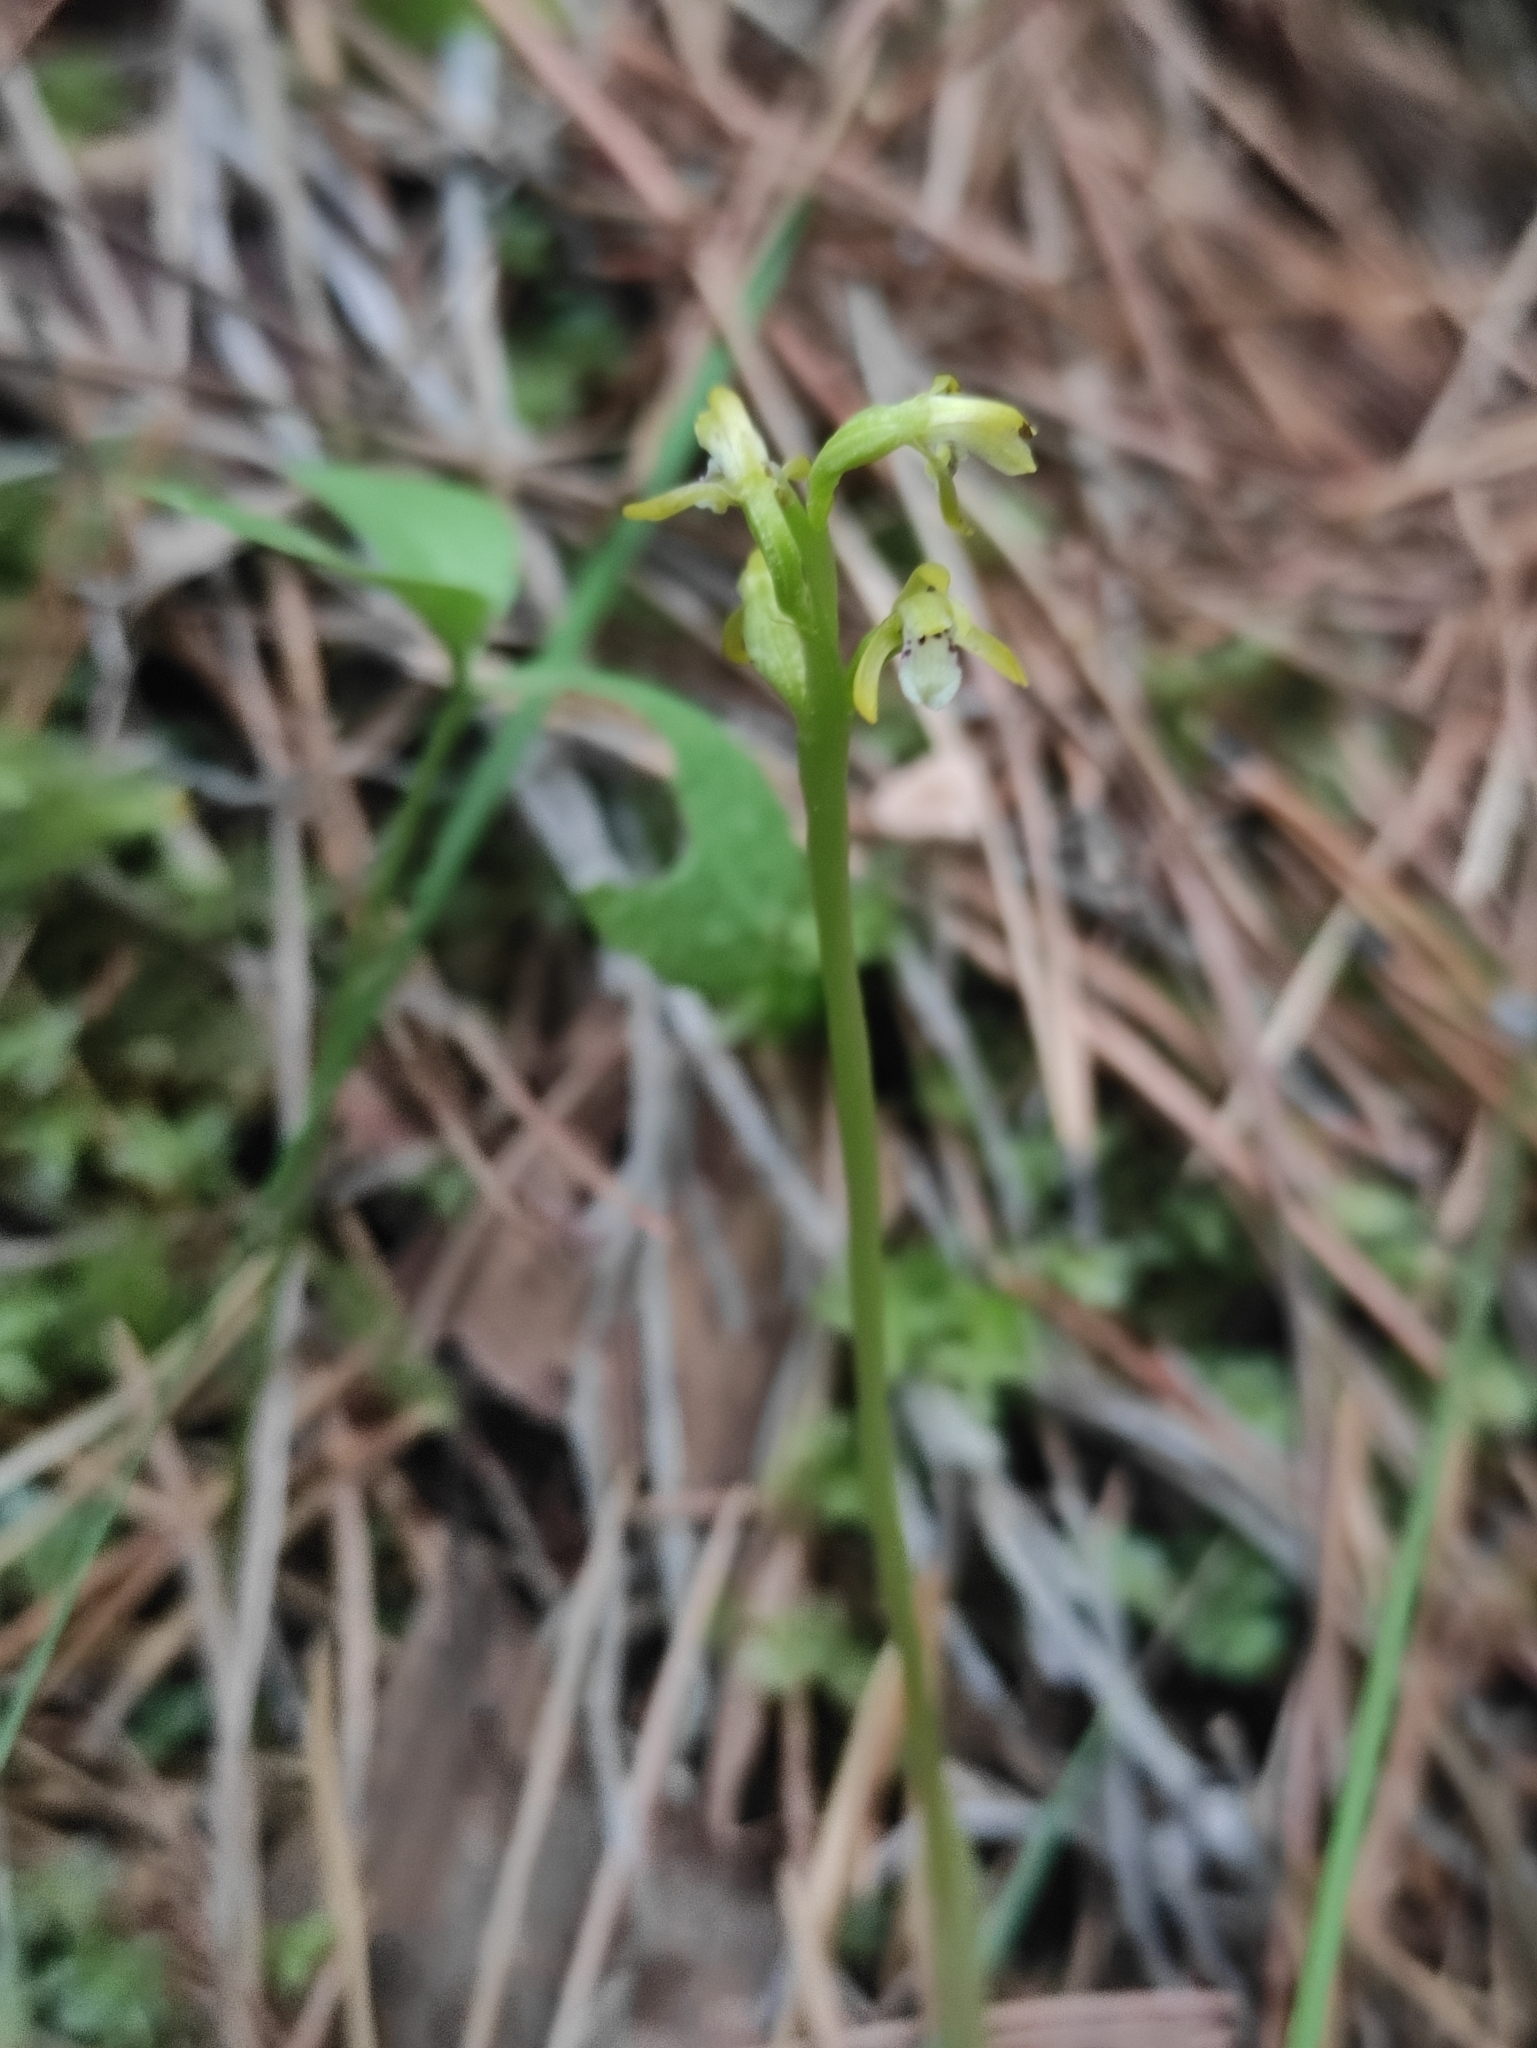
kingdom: Plantae
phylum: Tracheophyta
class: Liliopsida
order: Asparagales
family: Orchidaceae
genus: Corallorhiza
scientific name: Corallorhiza trifida
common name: Yellow coralroot
